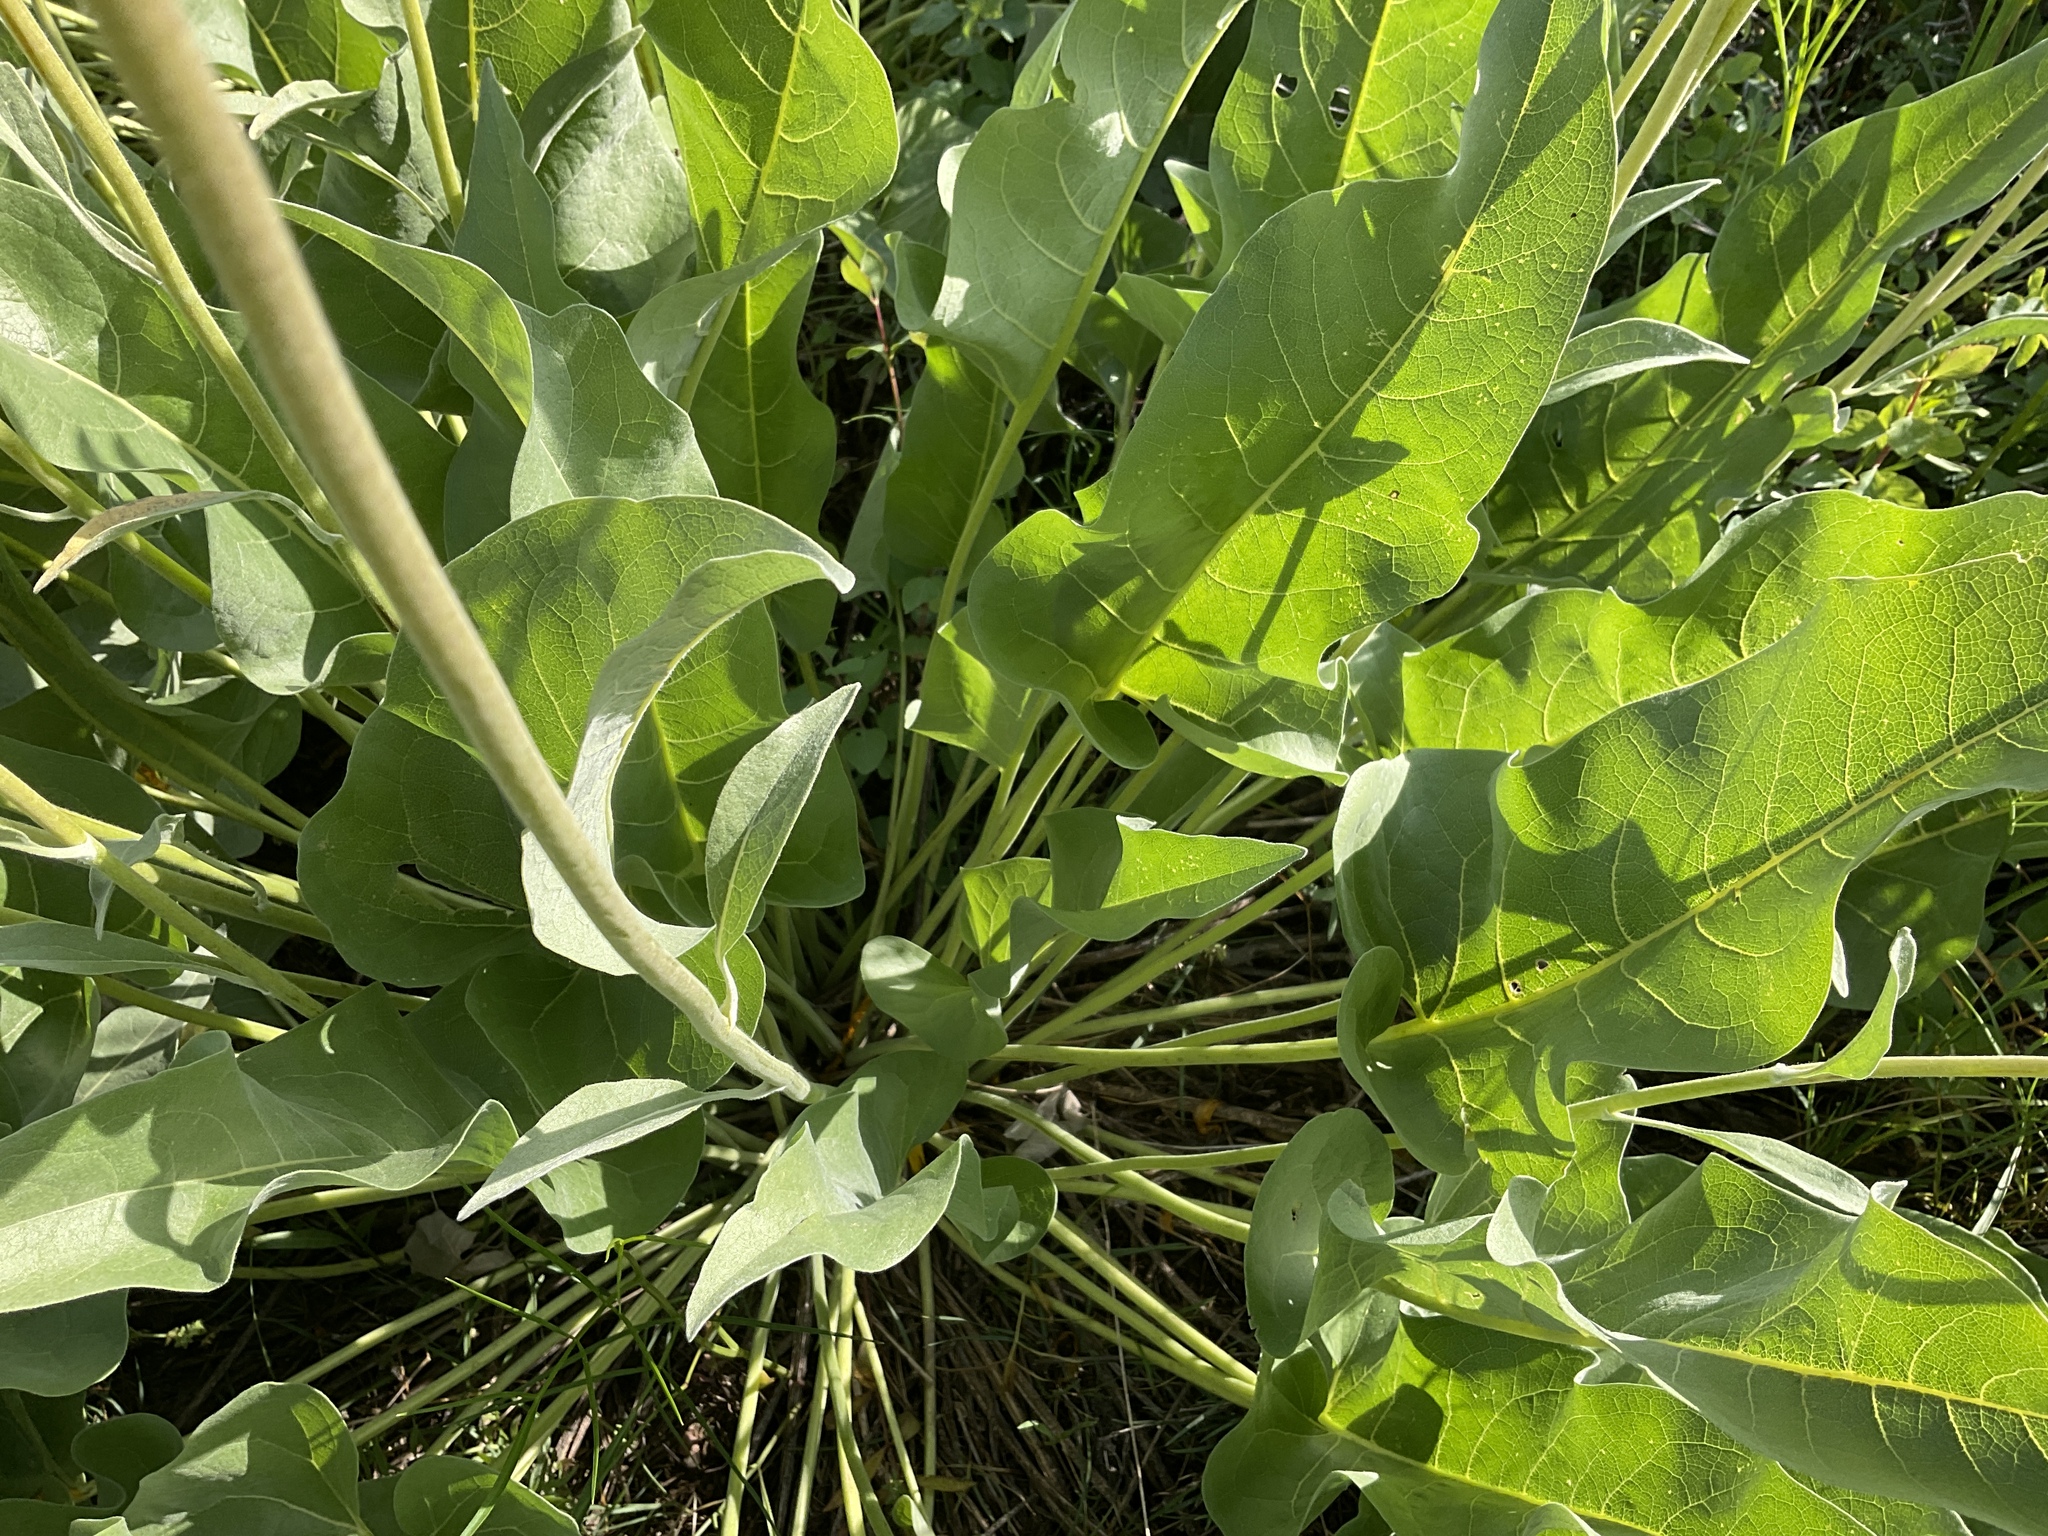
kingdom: Plantae
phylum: Tracheophyta
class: Magnoliopsida
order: Asterales
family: Asteraceae
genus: Wyethia
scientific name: Wyethia sagittata
